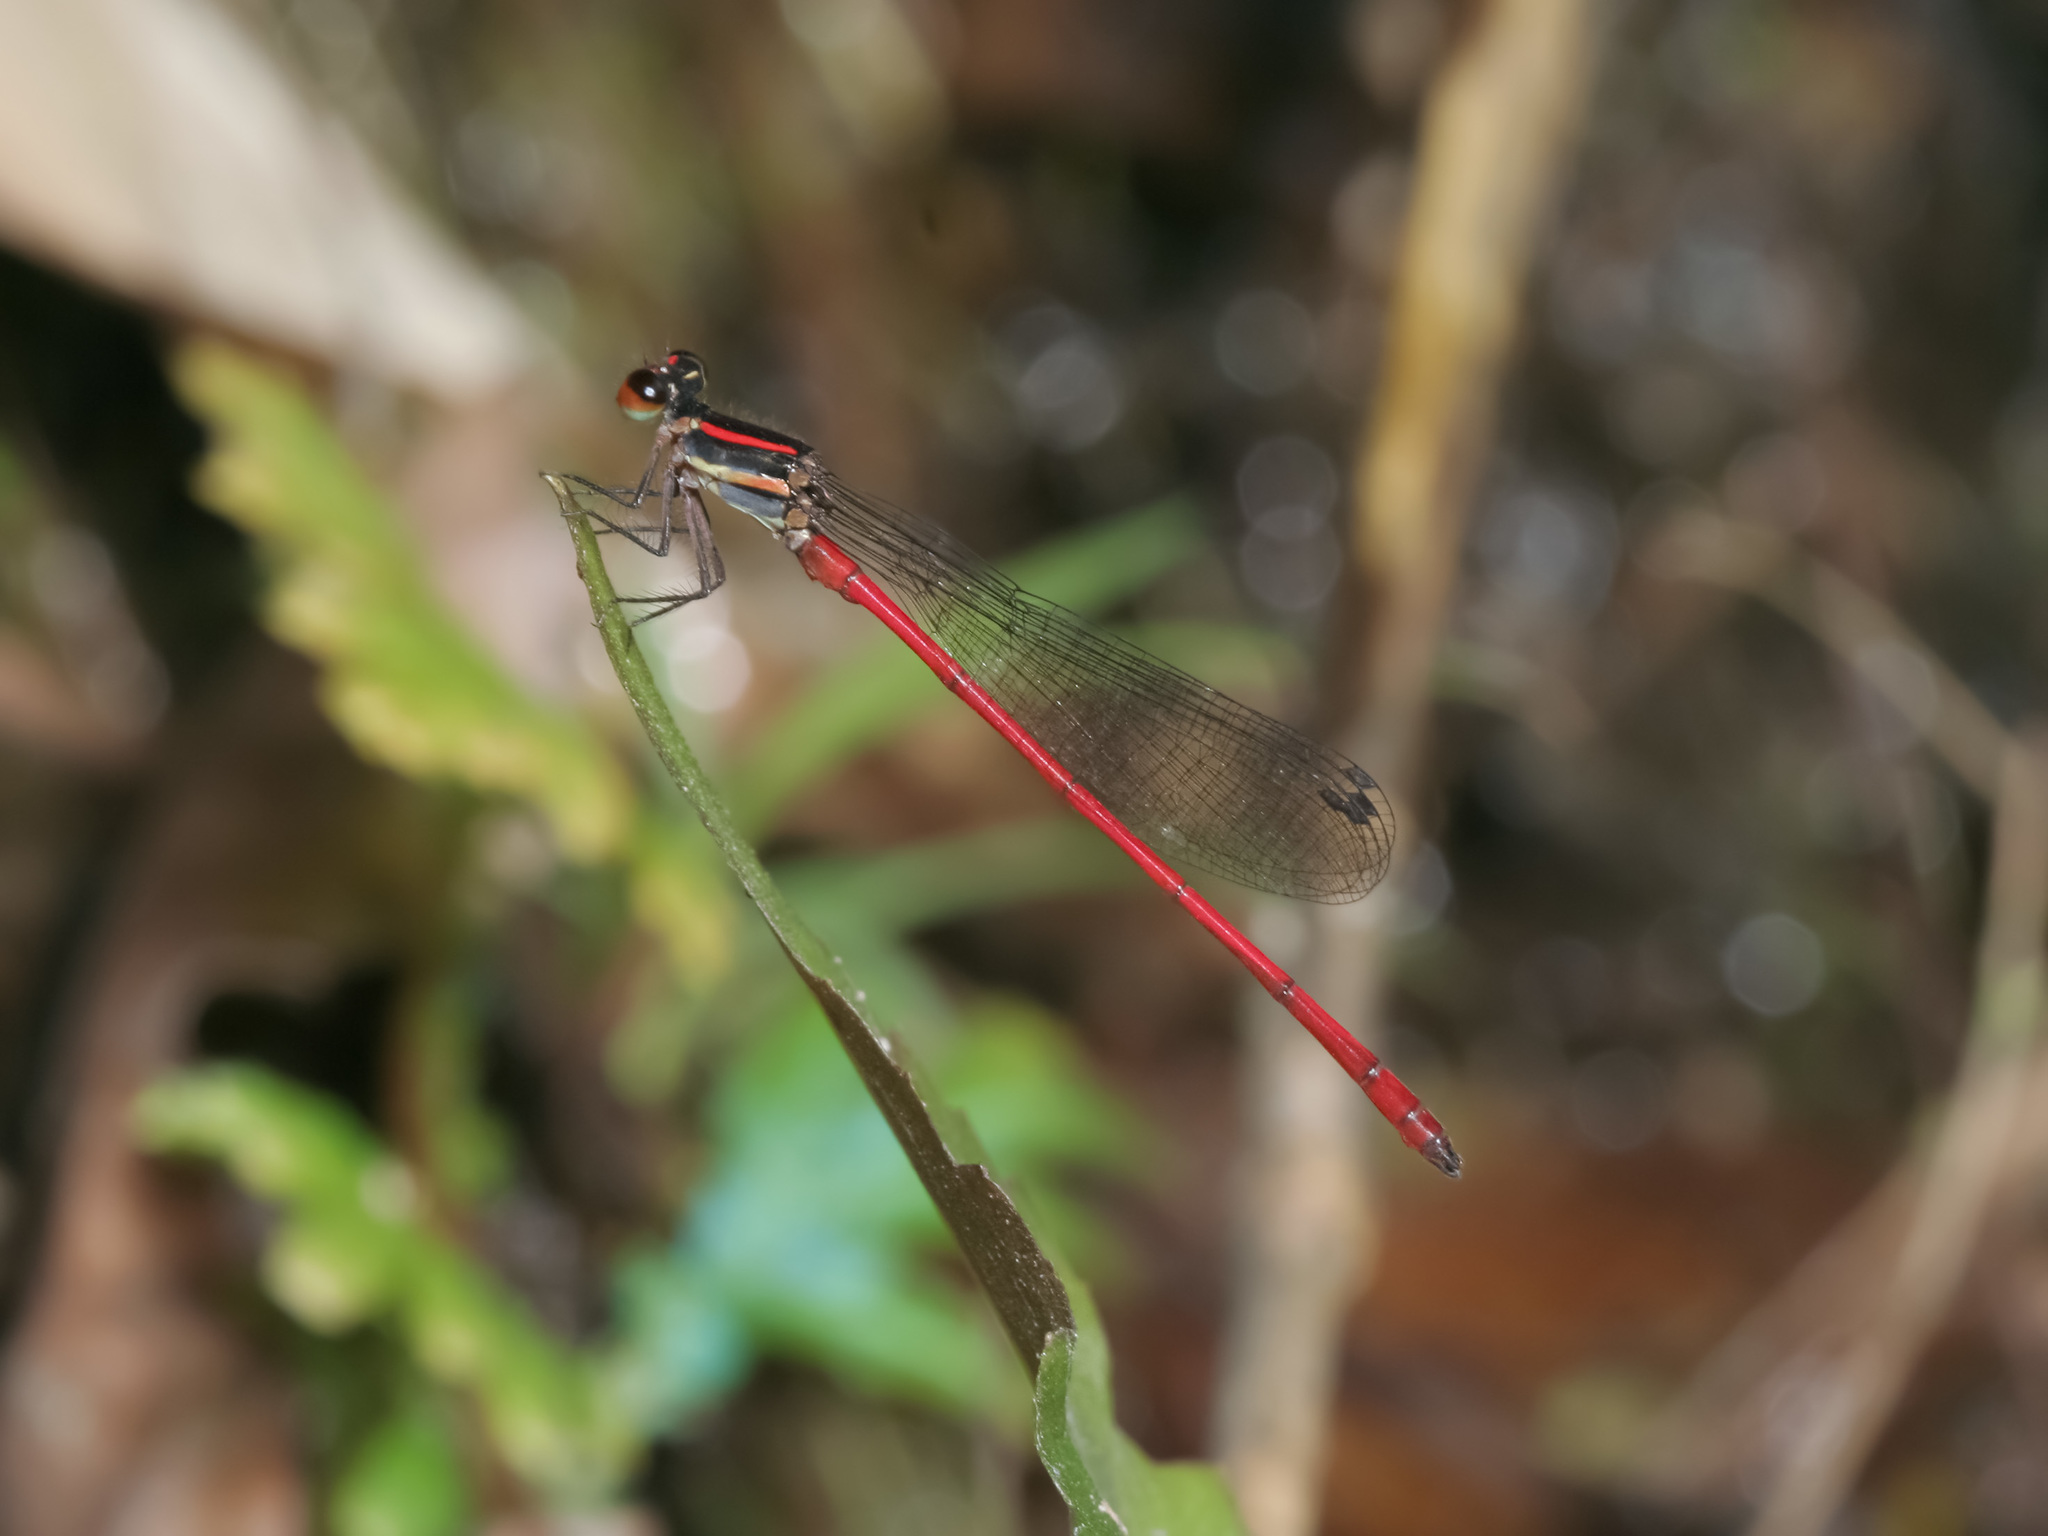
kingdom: Animalia
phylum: Arthropoda
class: Insecta
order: Odonata
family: Platycnemididae
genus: Calicnemia
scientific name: Calicnemia chaseni
